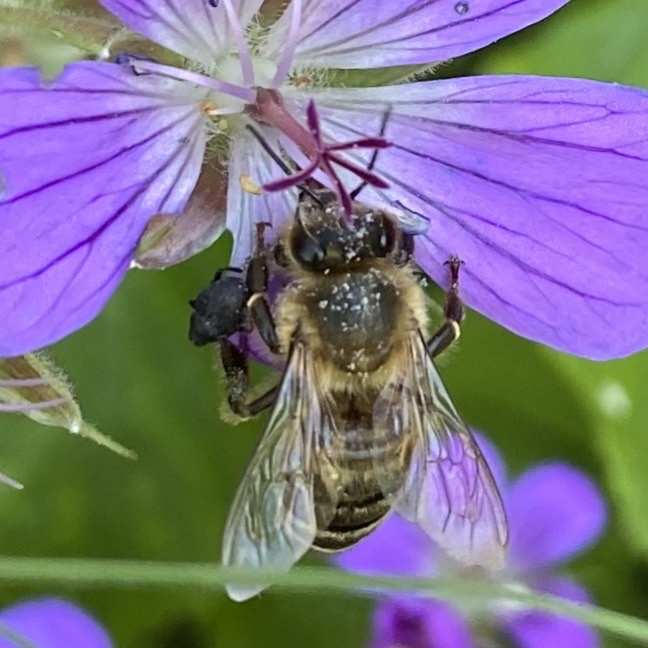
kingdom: Animalia
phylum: Arthropoda
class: Insecta
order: Hymenoptera
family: Apidae
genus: Apis
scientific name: Apis mellifera
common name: Honey bee
